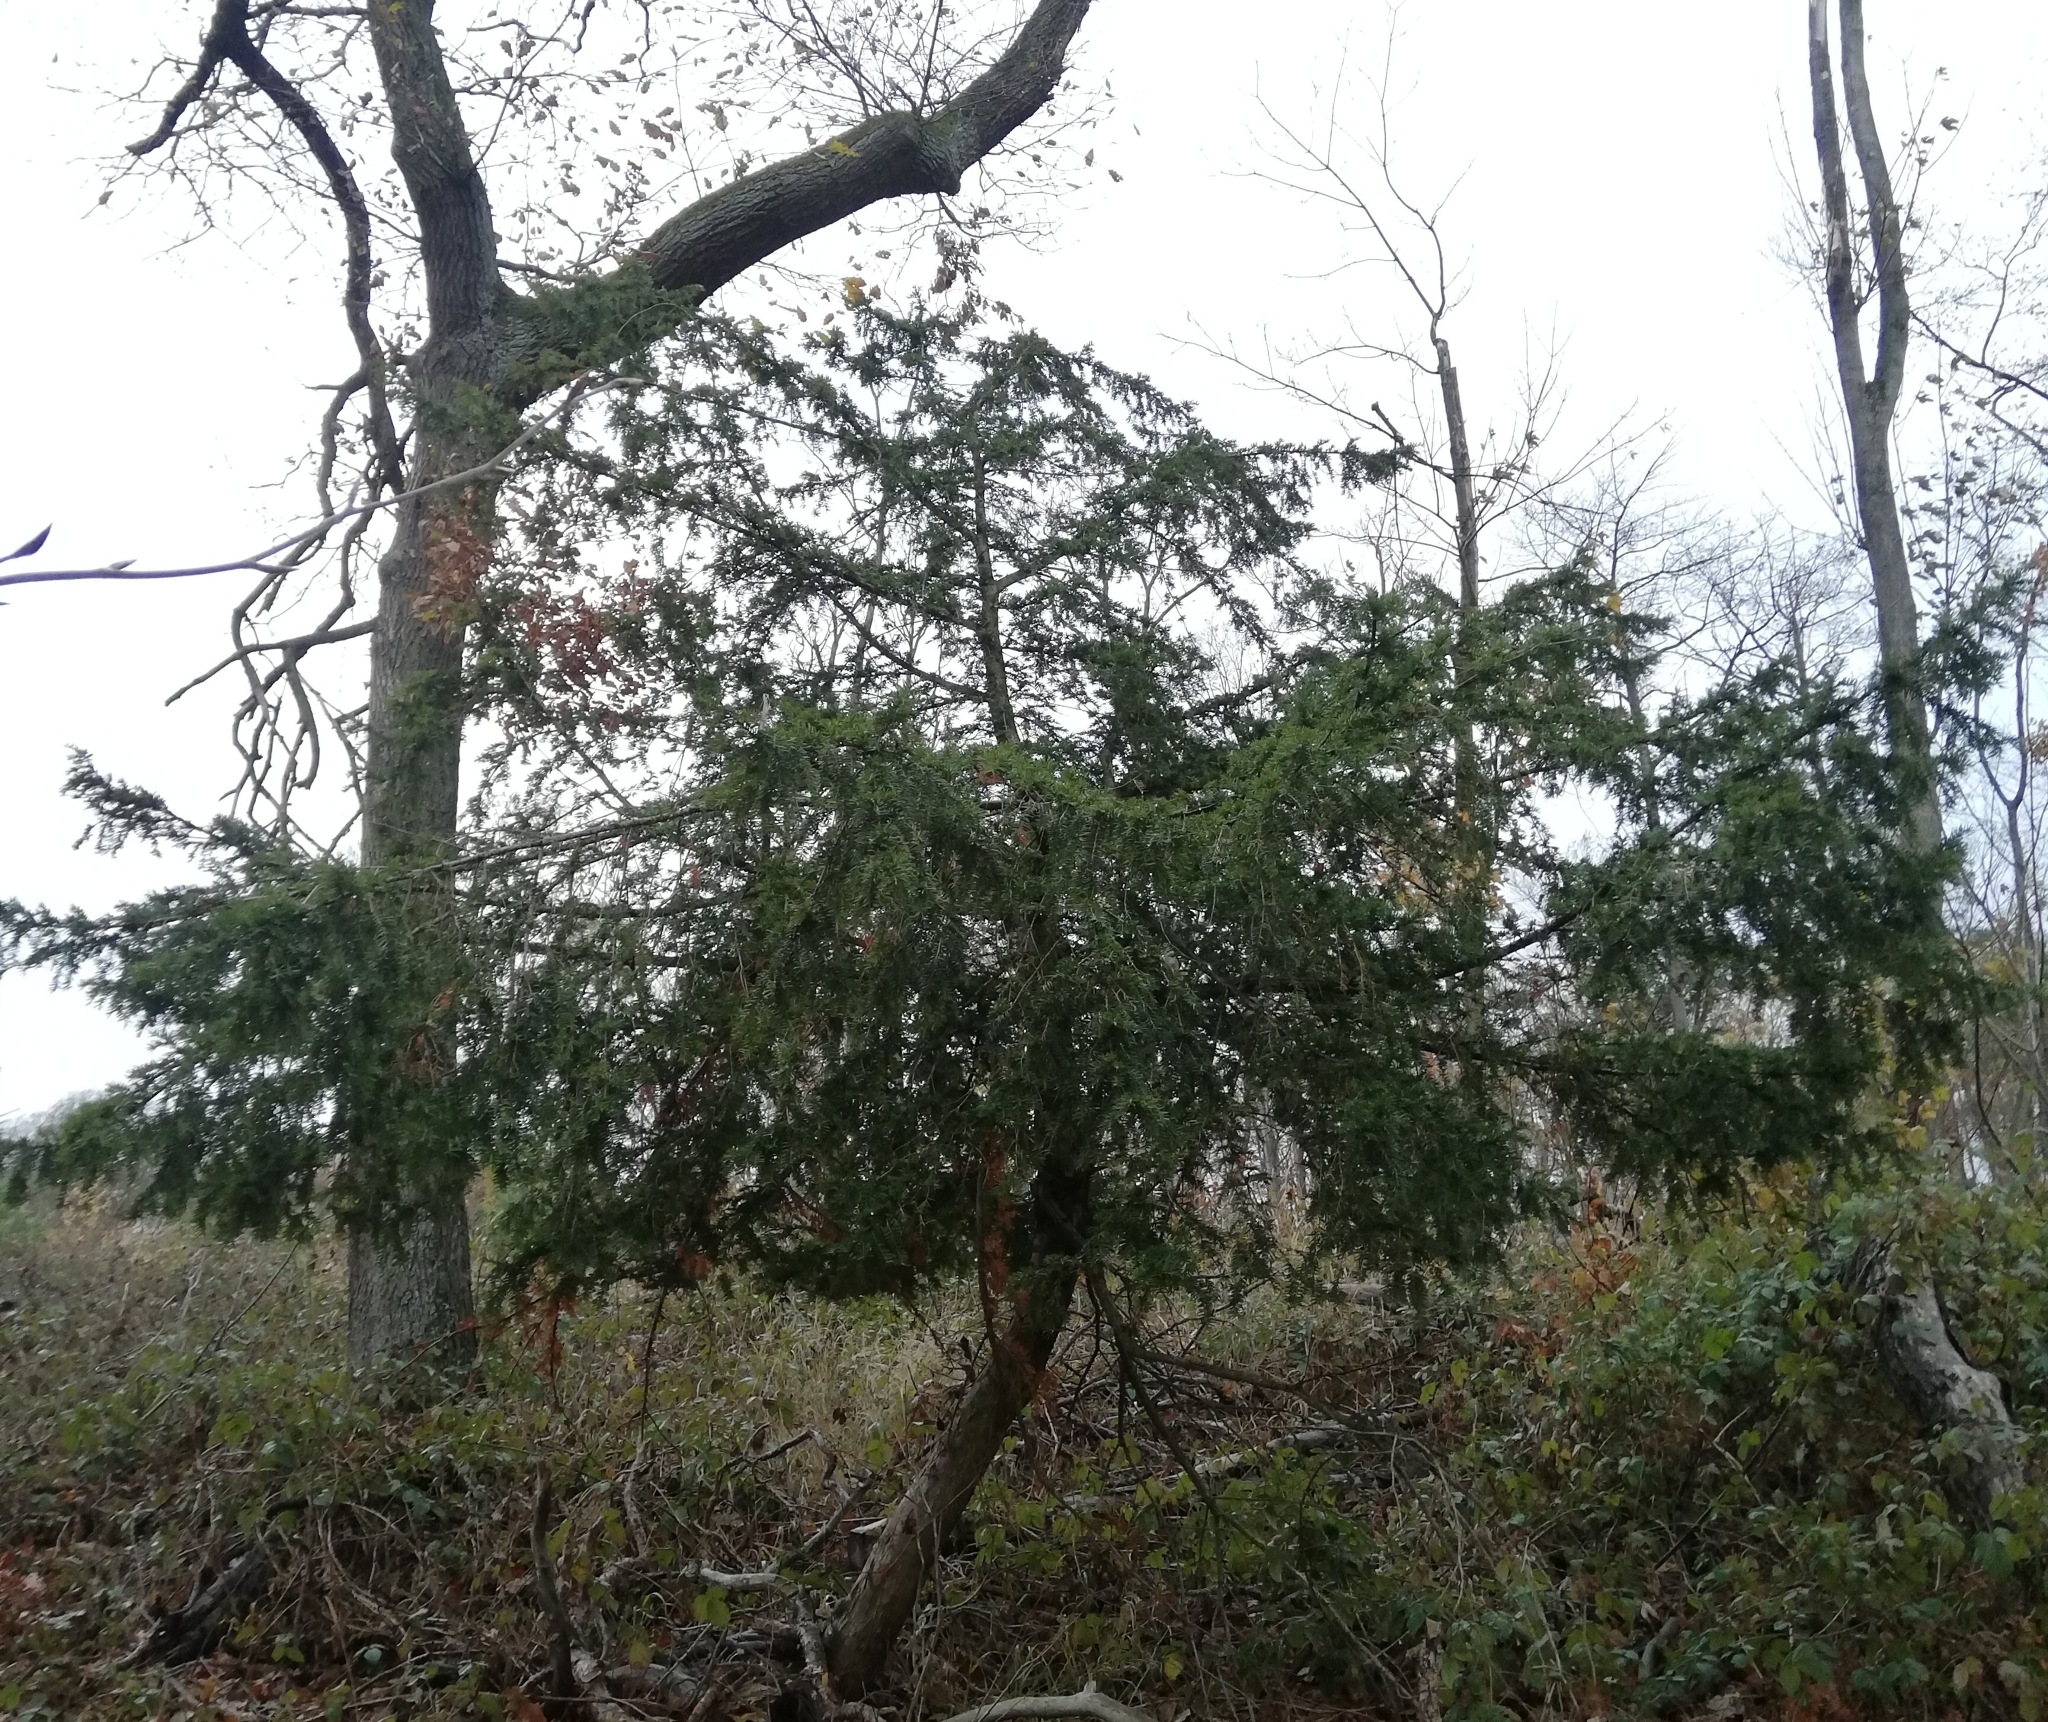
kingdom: Plantae
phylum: Tracheophyta
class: Pinopsida
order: Pinales
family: Taxaceae
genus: Taxus
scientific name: Taxus baccata
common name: Yew
